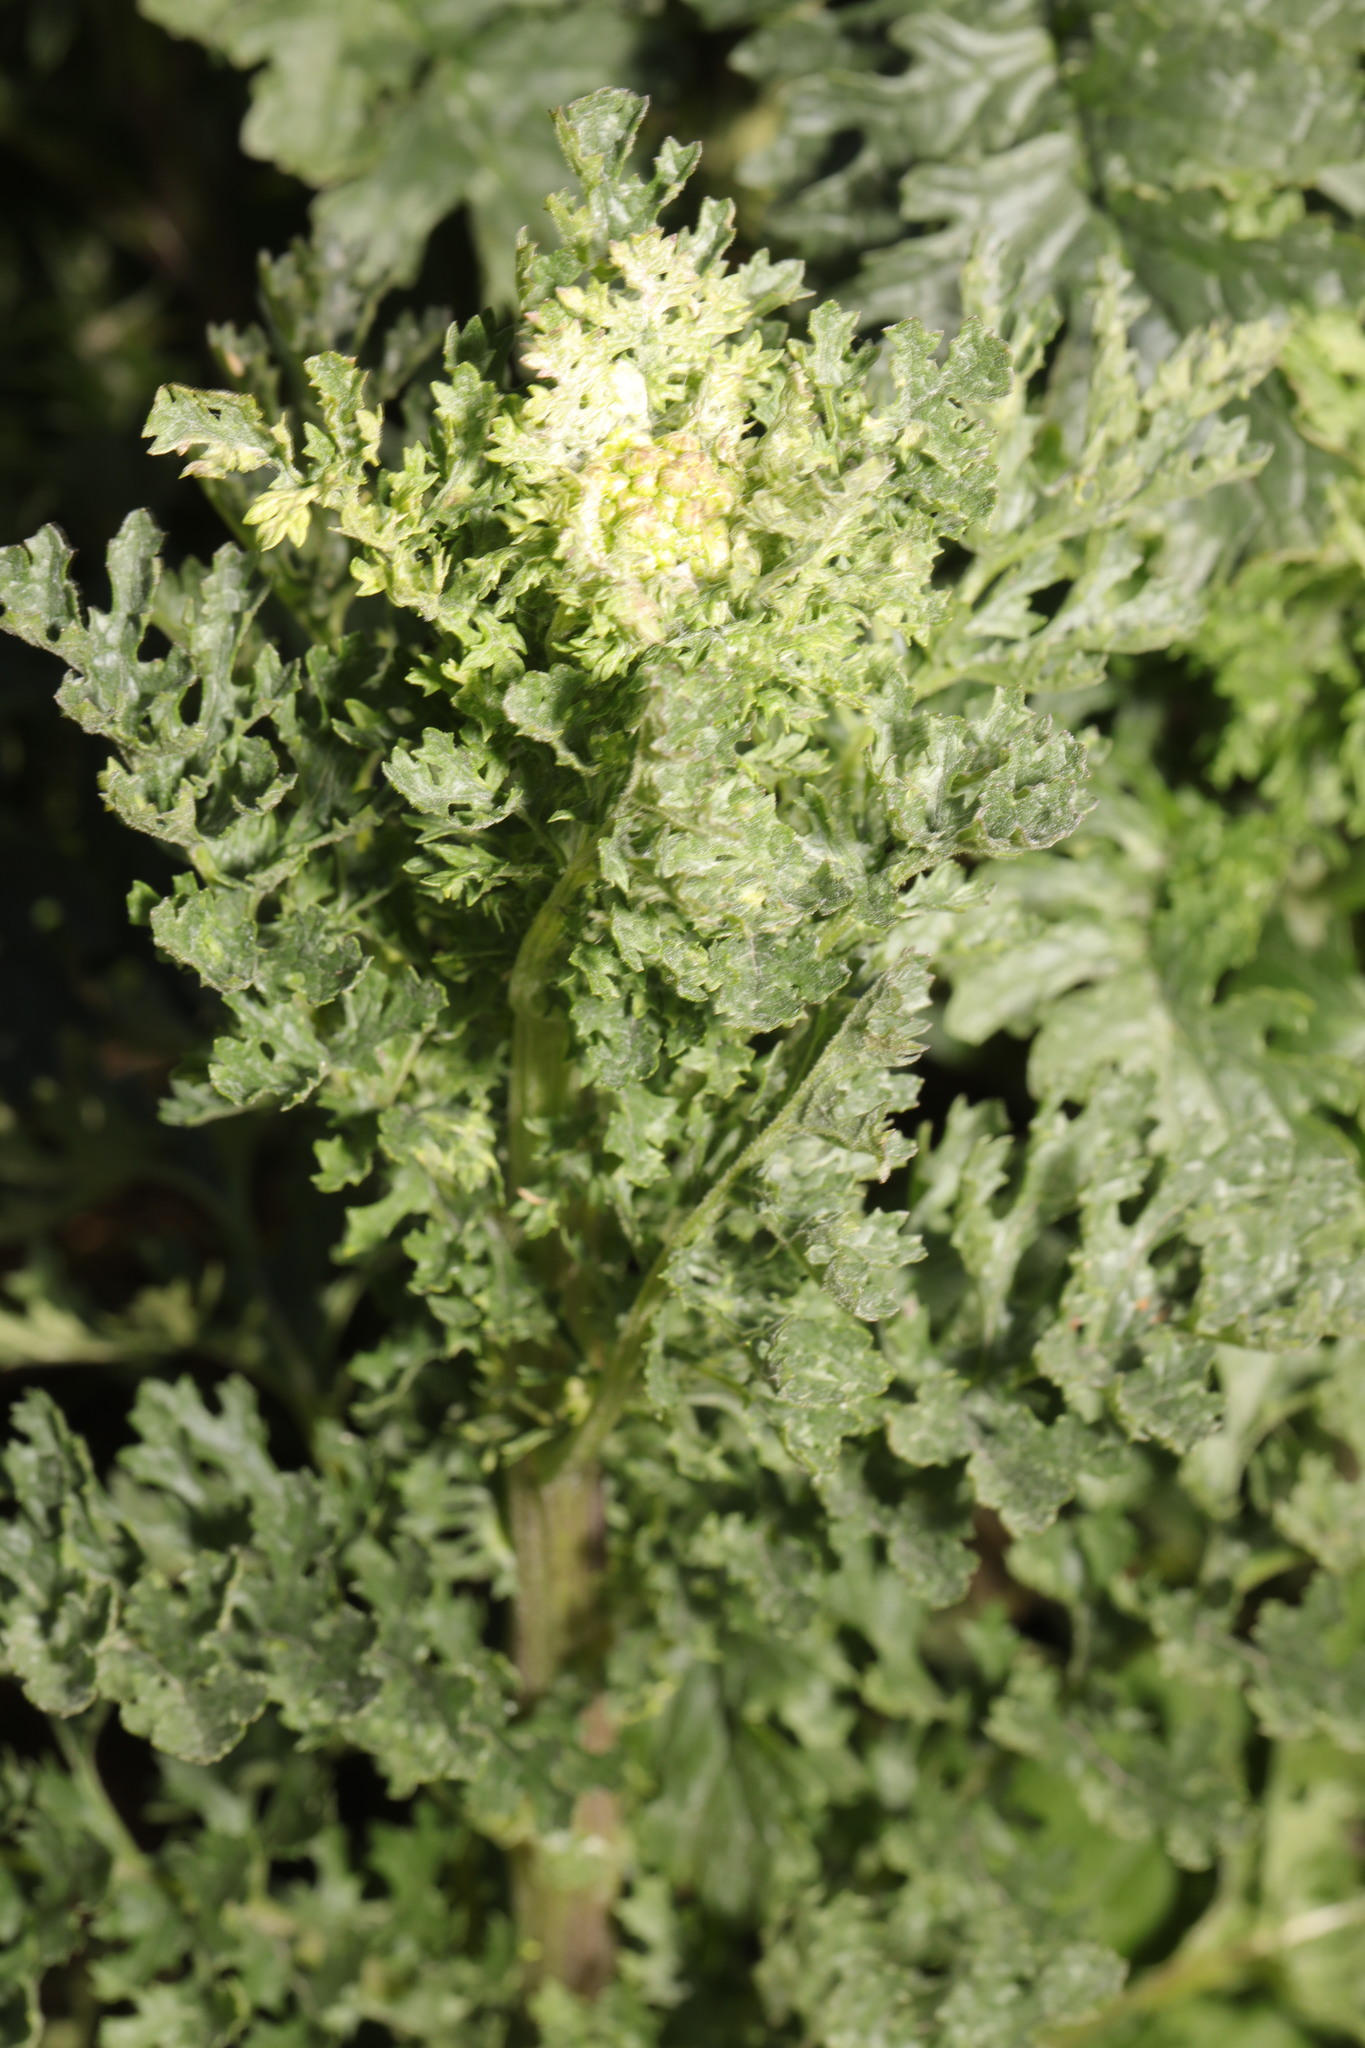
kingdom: Plantae
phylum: Tracheophyta
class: Magnoliopsida
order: Asterales
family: Asteraceae
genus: Jacobaea
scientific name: Jacobaea vulgaris
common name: Stinking willie
